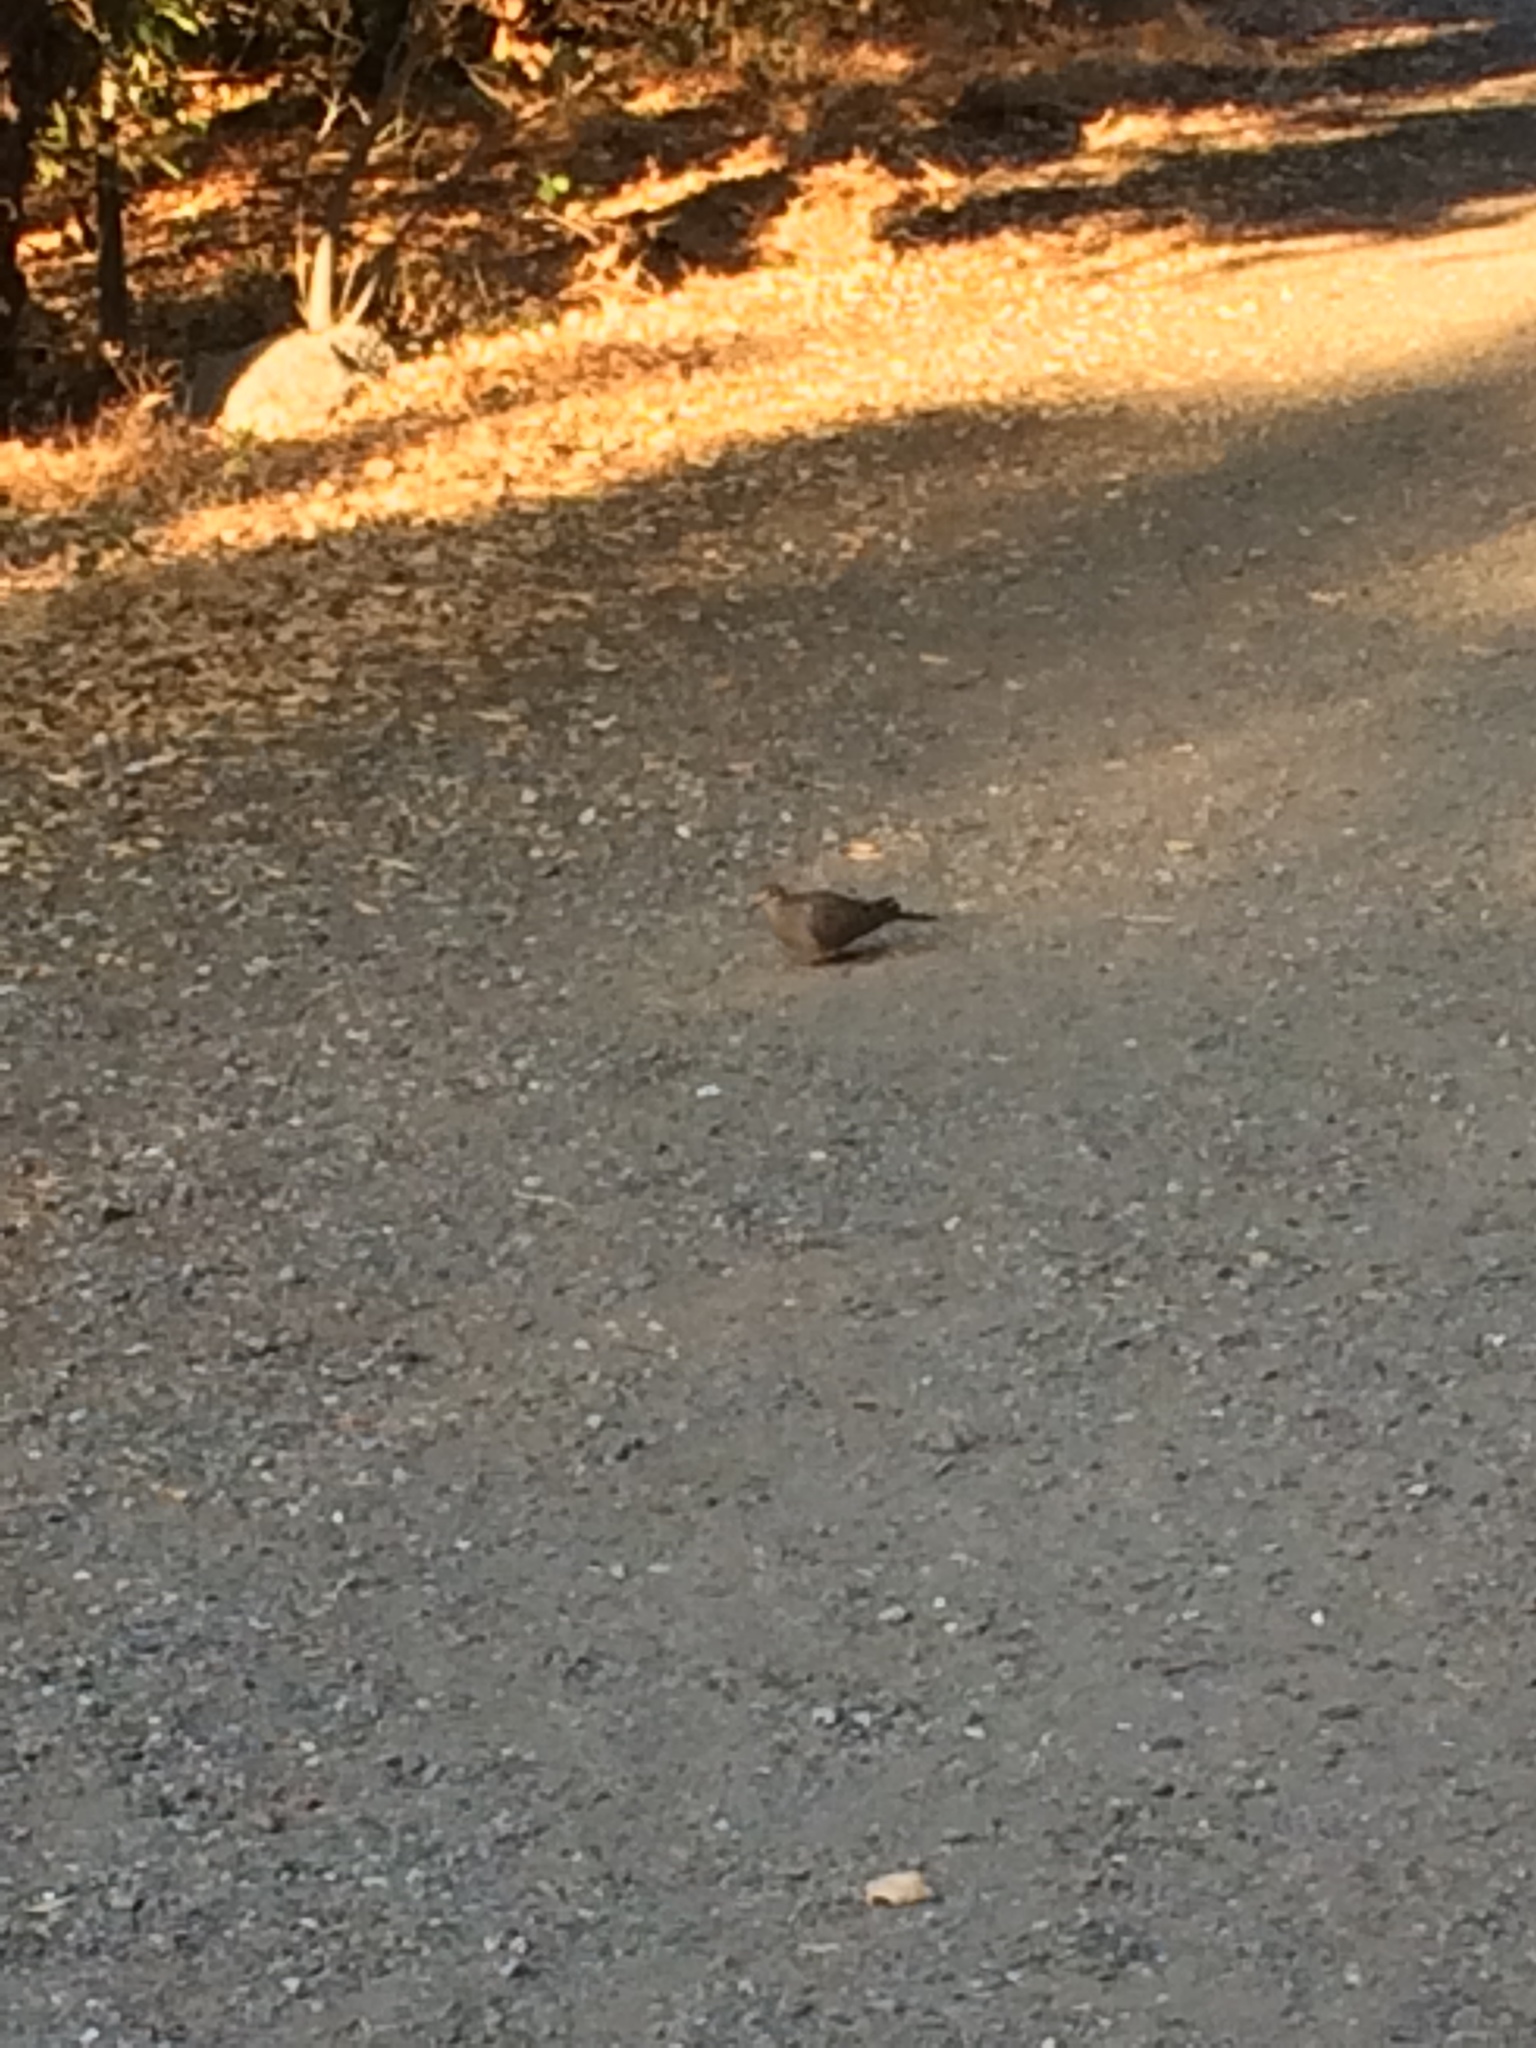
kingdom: Animalia
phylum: Chordata
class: Aves
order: Columbiformes
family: Columbidae
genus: Zenaida
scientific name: Zenaida macroura
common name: Mourning dove
